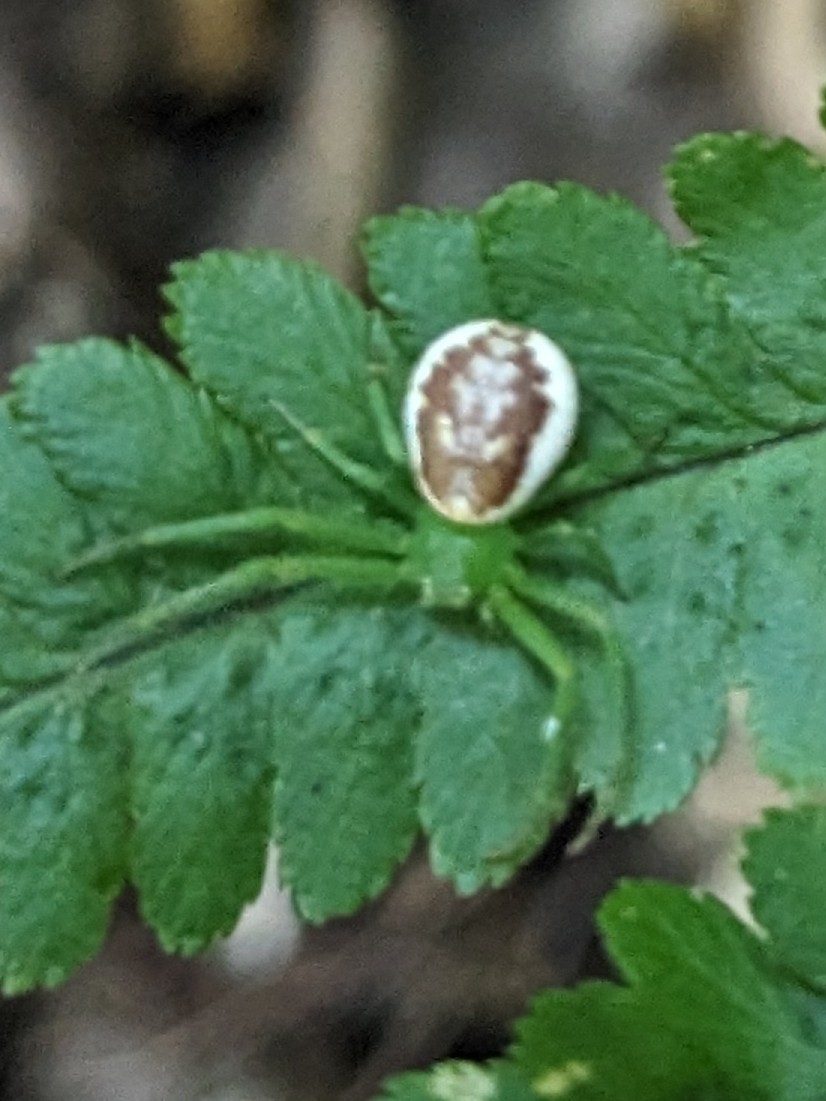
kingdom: Animalia
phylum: Arthropoda
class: Arachnida
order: Araneae
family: Thomisidae
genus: Diaea
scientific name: Diaea dorsata
